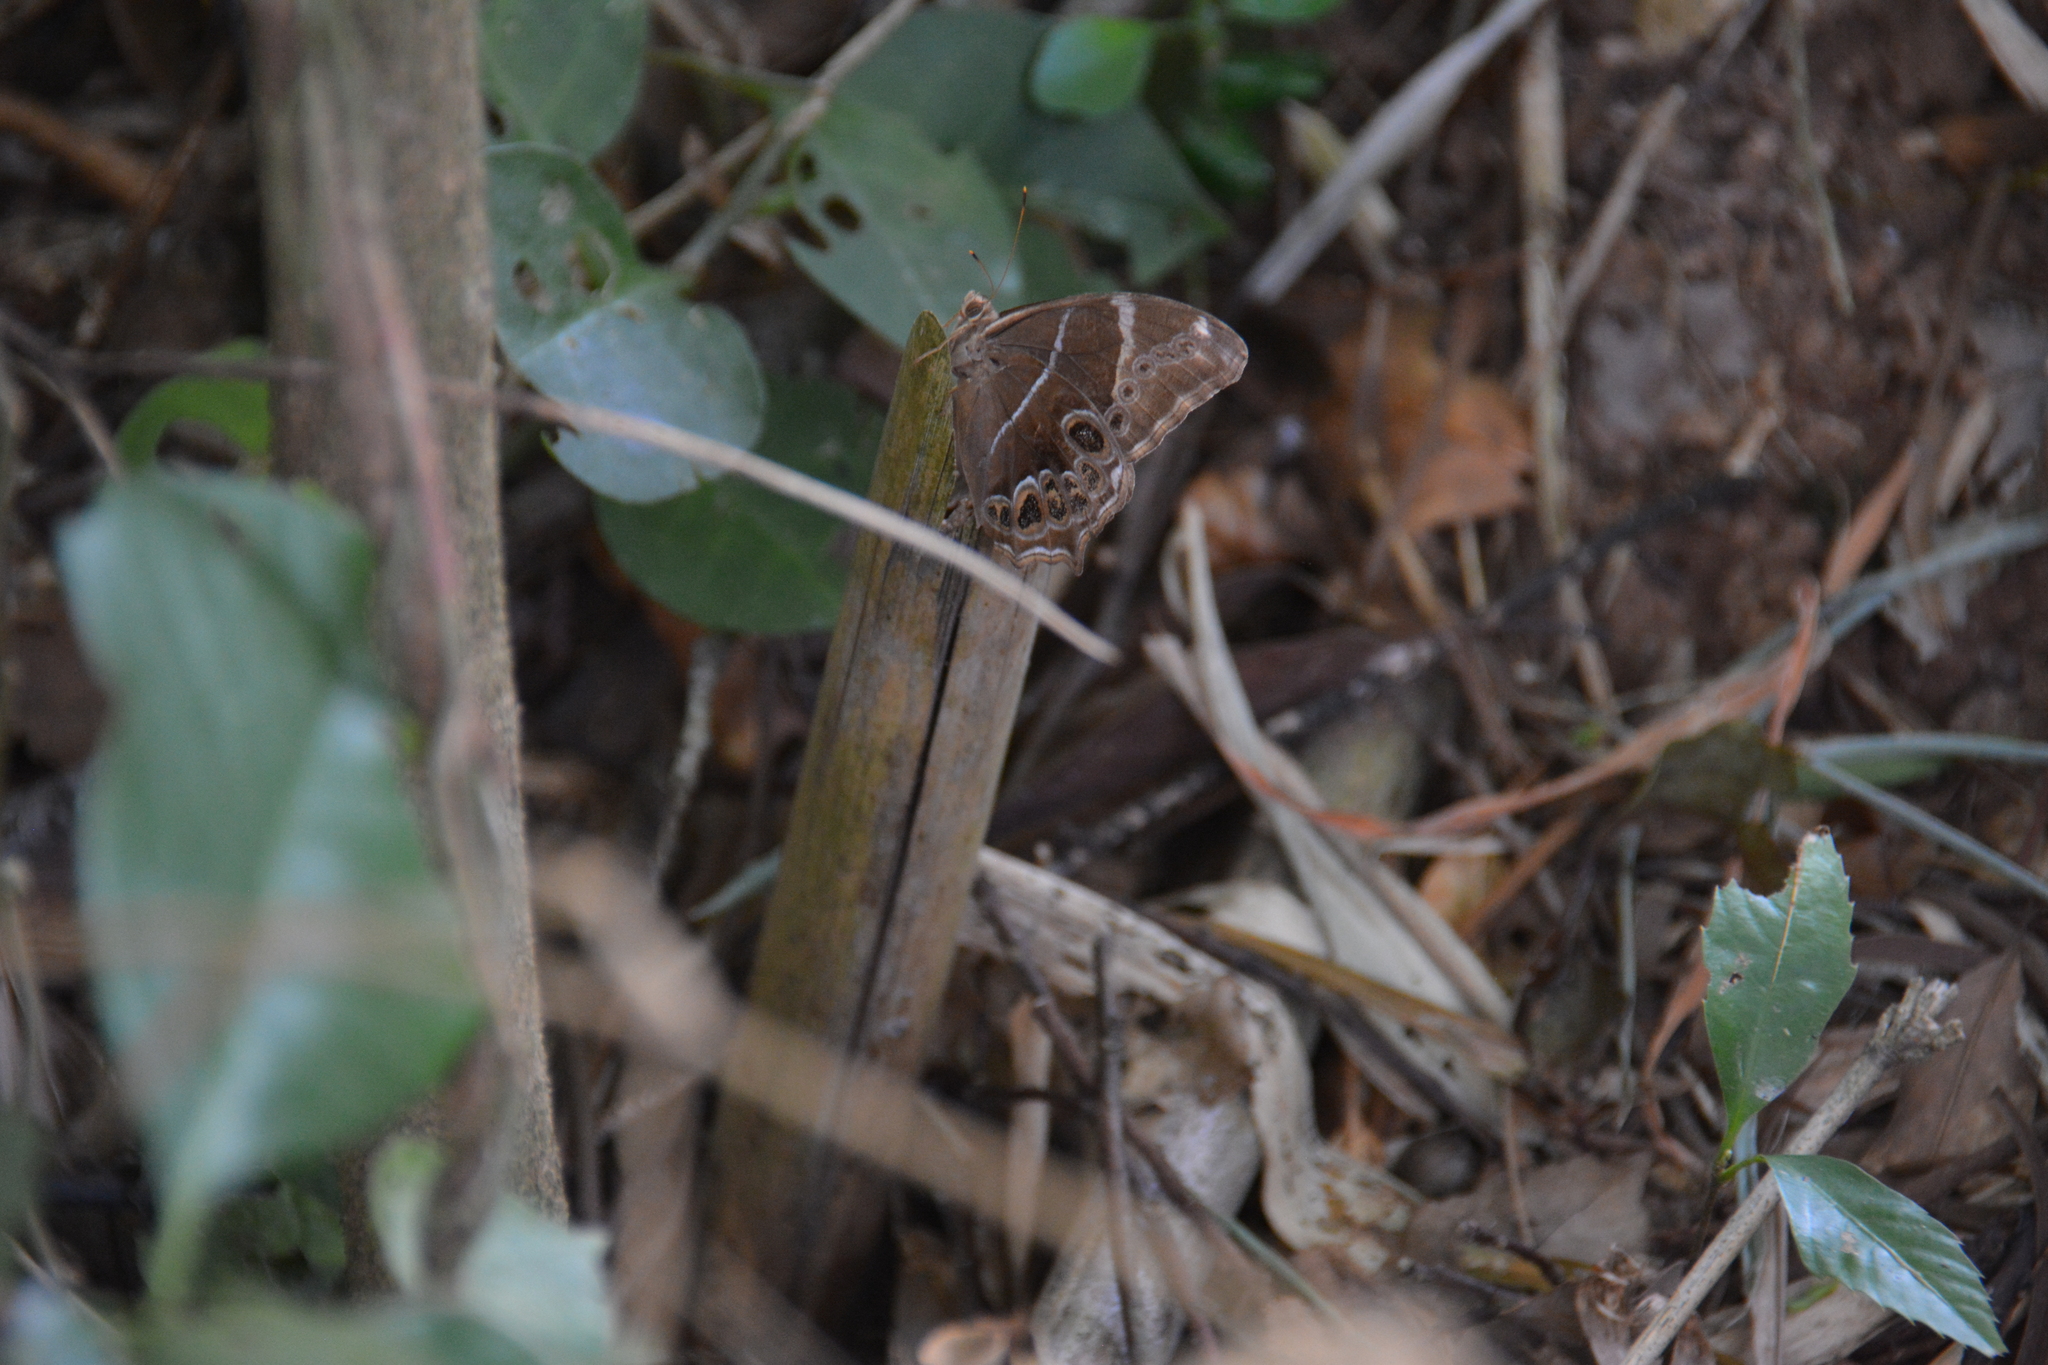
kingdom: Animalia
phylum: Arthropoda
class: Insecta
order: Lepidoptera
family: Nymphalidae
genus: Lethe
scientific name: Lethe europa
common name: Bamboo treebrown
